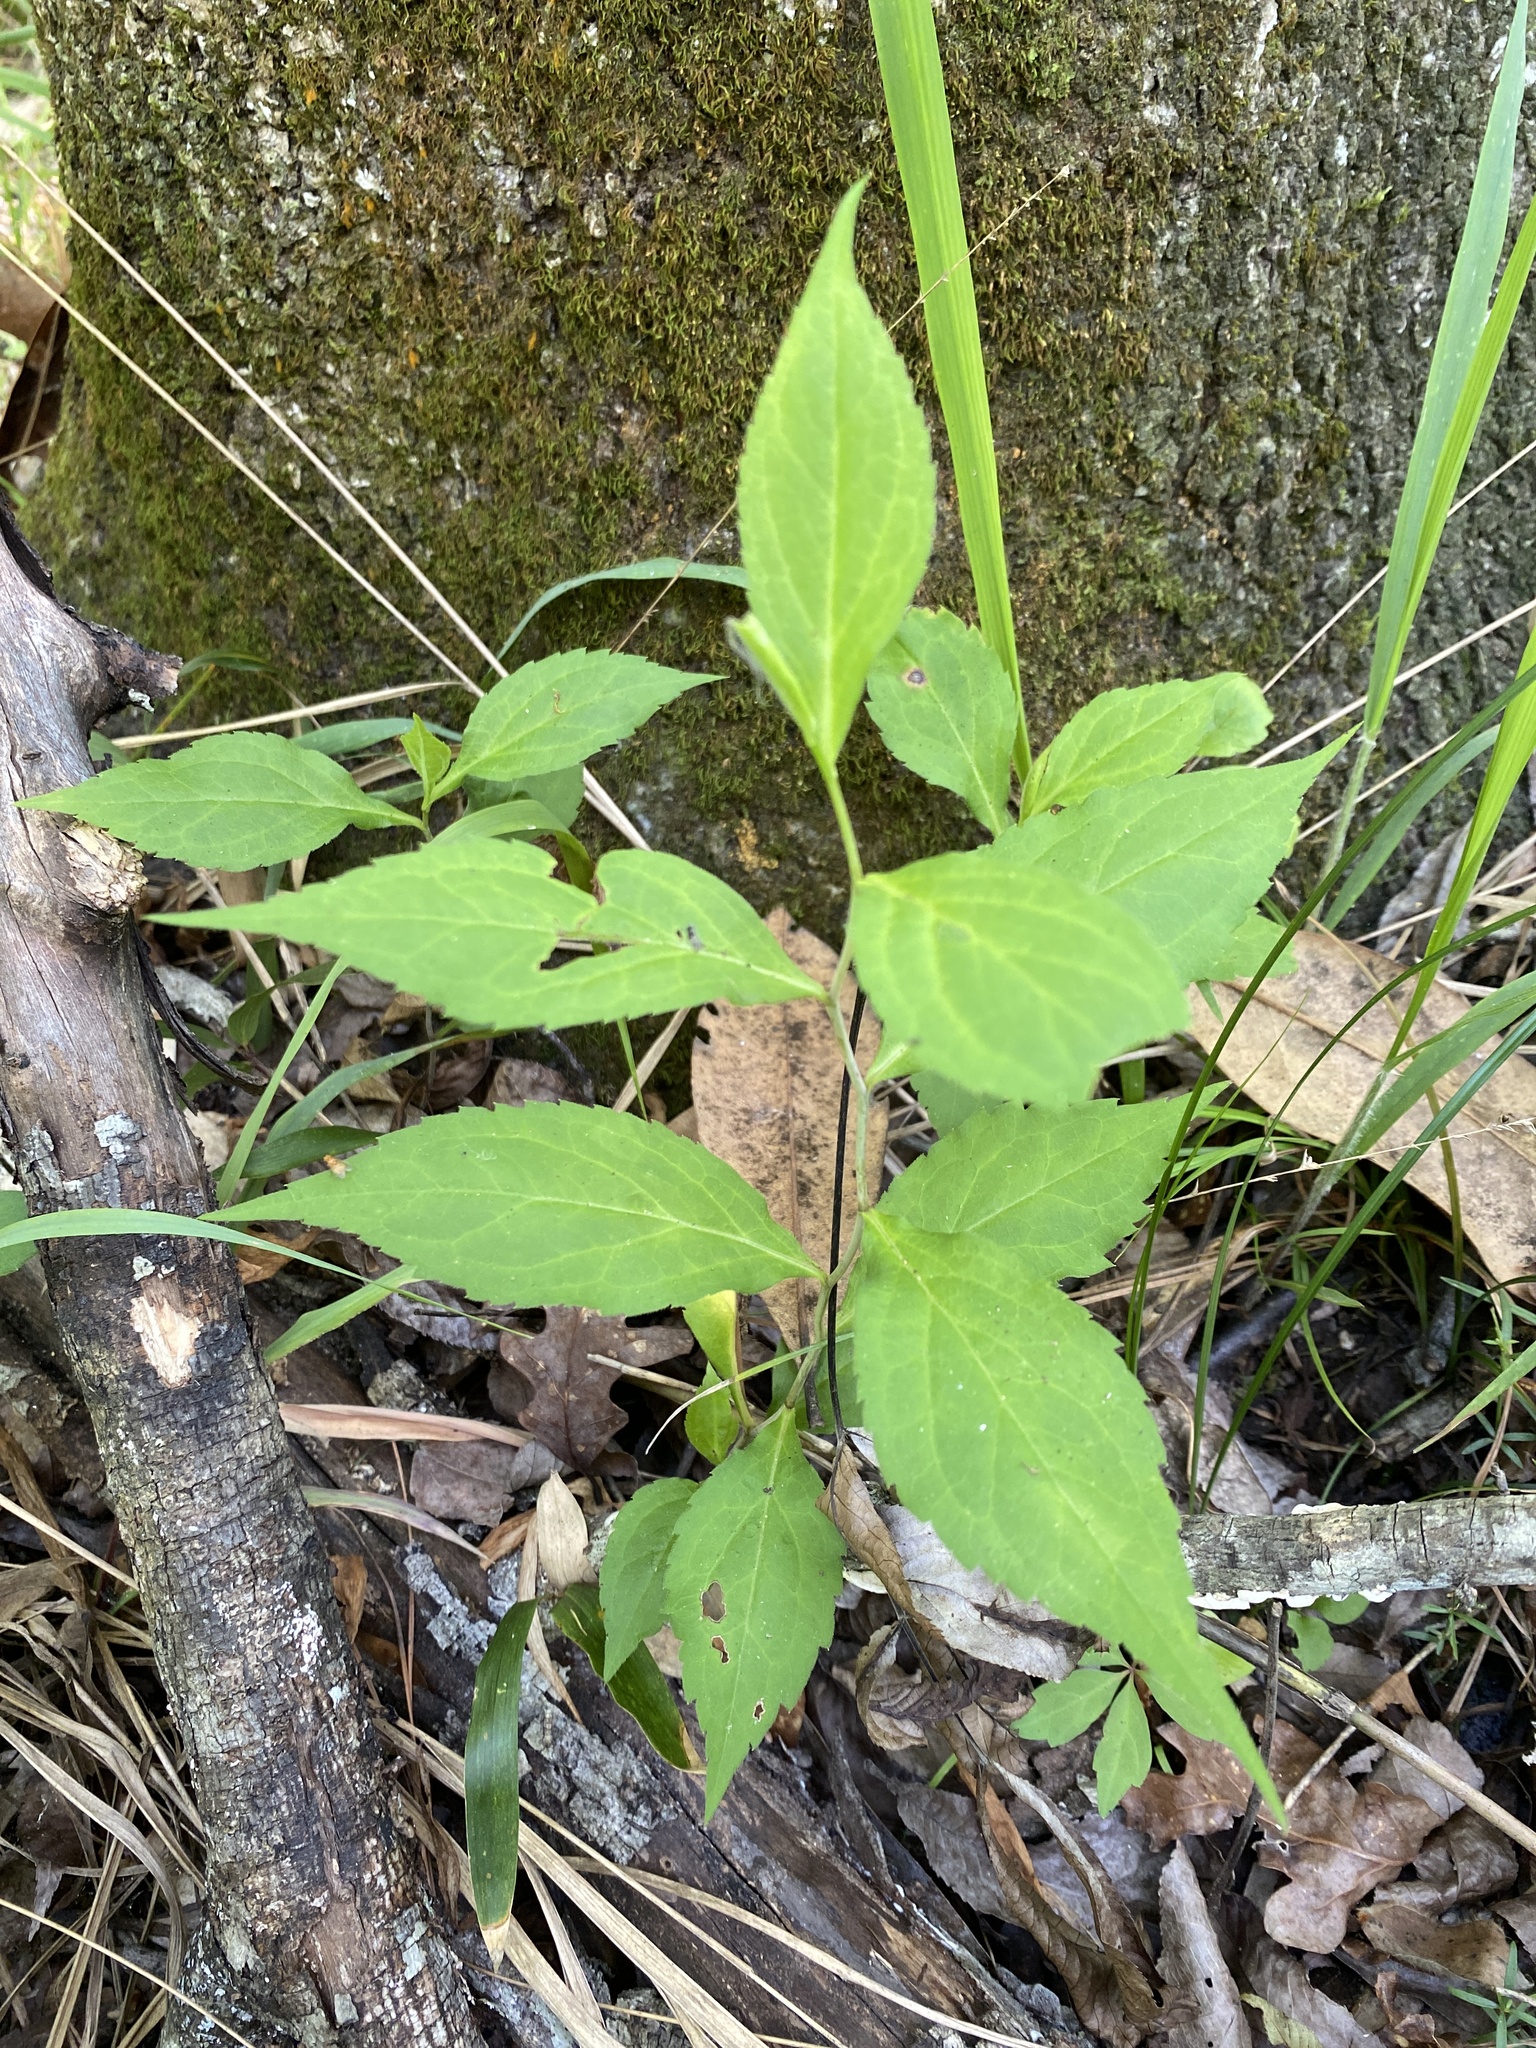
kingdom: Plantae
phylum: Tracheophyta
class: Magnoliopsida
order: Asterales
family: Asteraceae
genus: Solidago
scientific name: Solidago zedia
